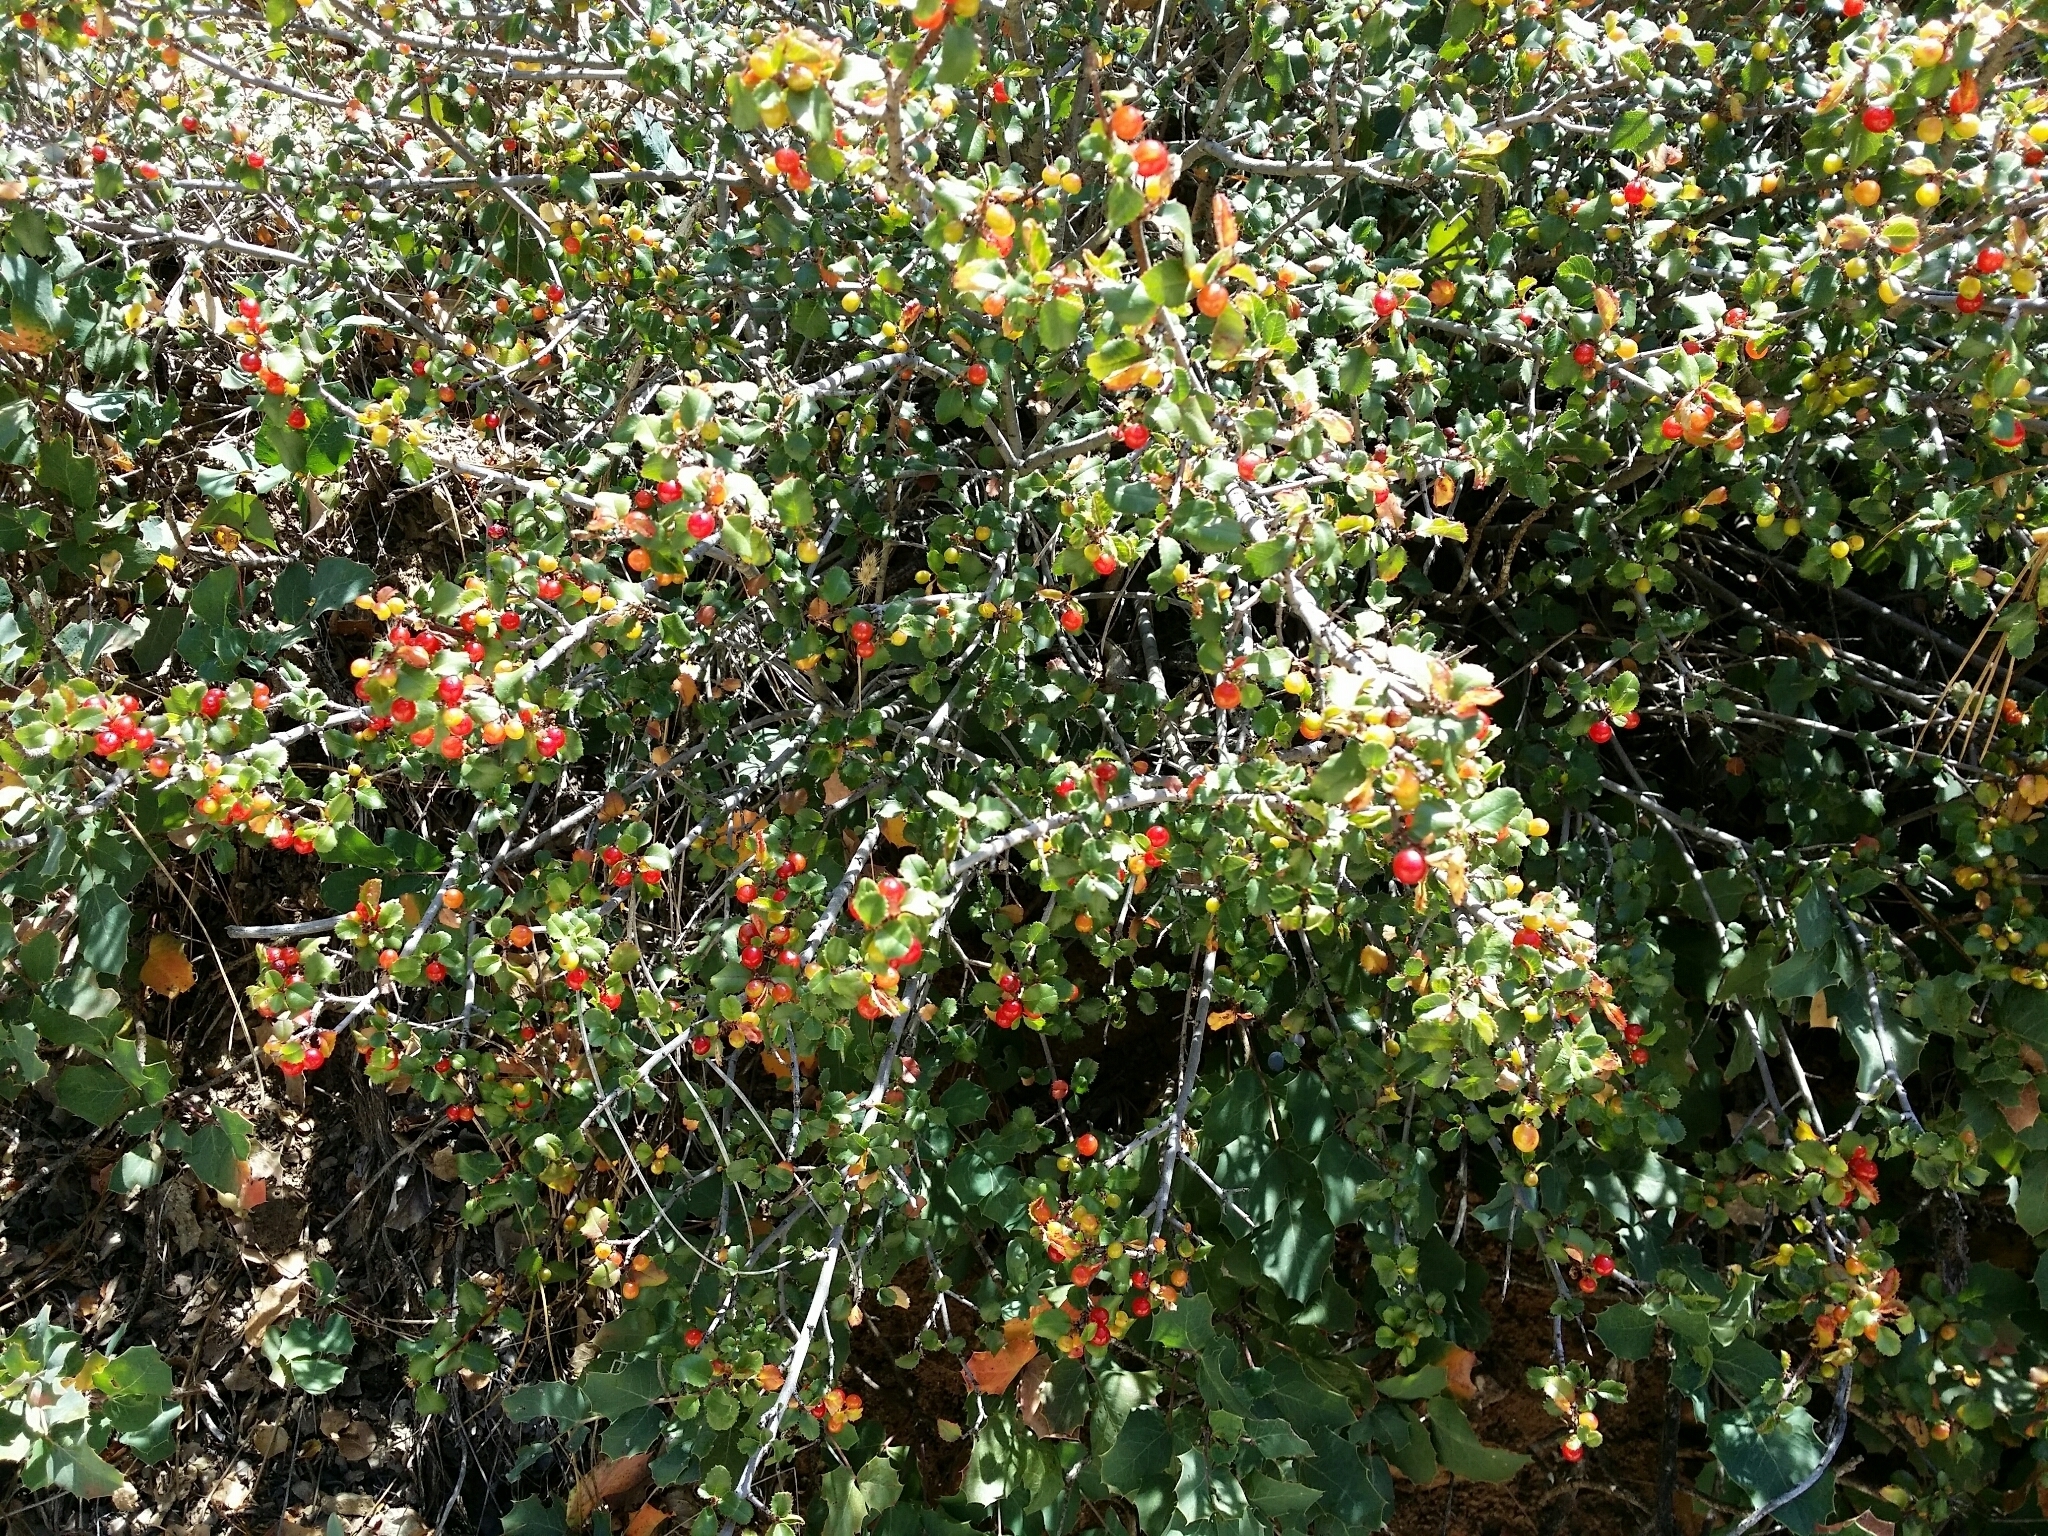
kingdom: Plantae
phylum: Tracheophyta
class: Magnoliopsida
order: Rosales
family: Rhamnaceae
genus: Endotropis
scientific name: Endotropis crocea
